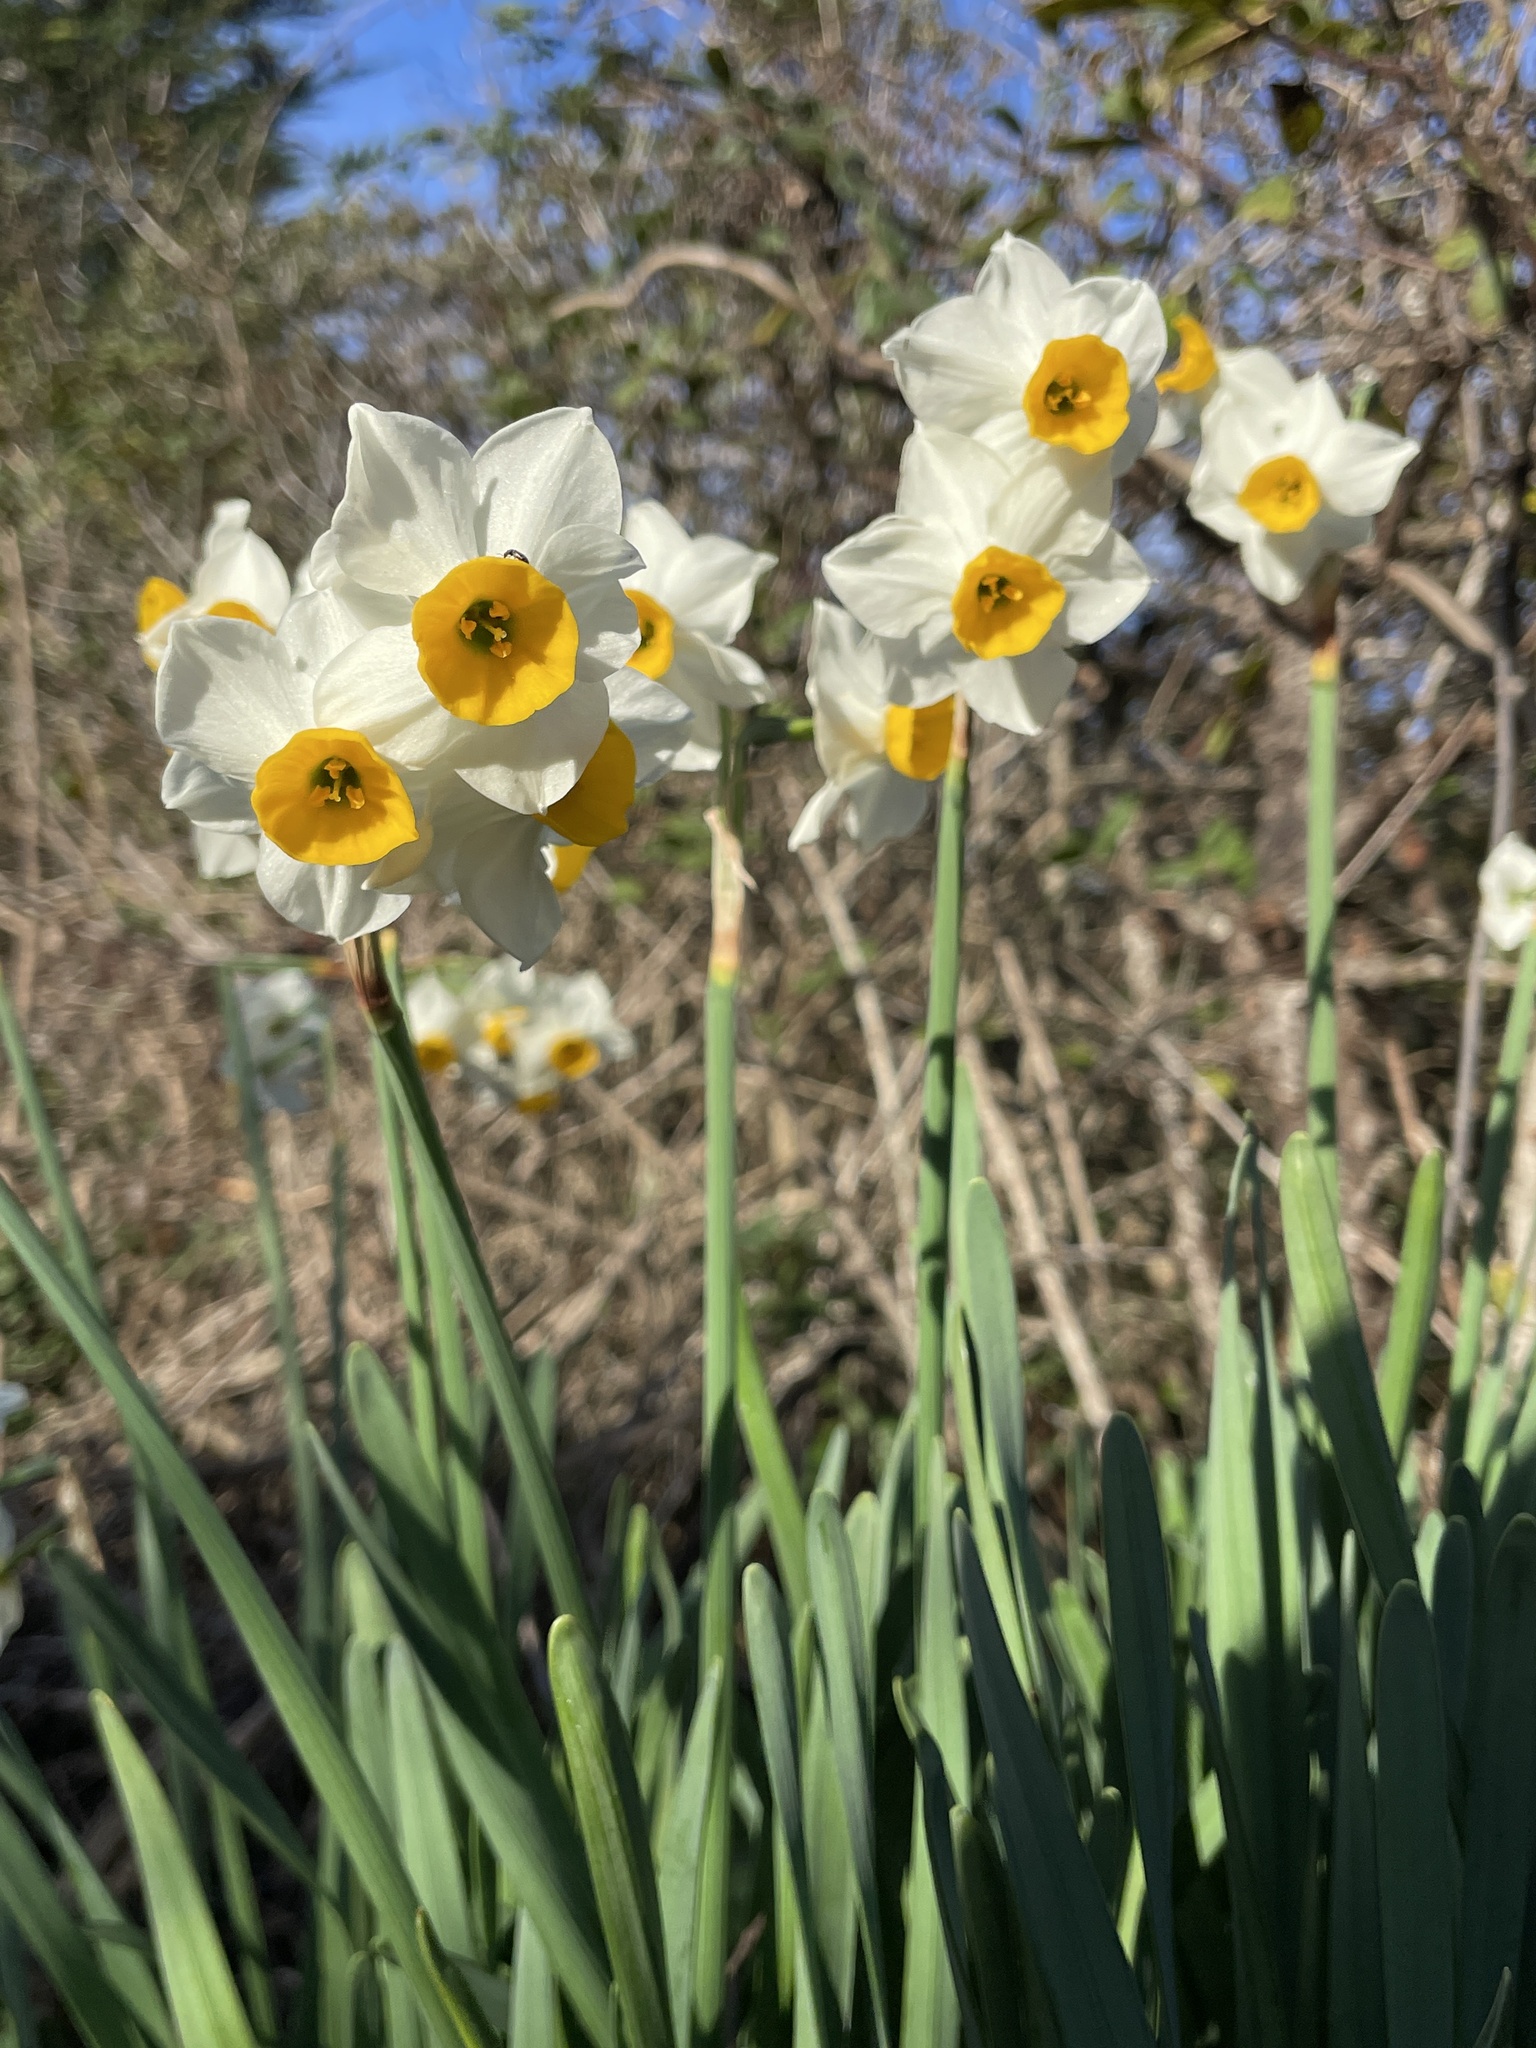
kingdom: Plantae
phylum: Tracheophyta
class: Liliopsida
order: Asparagales
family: Amaryllidaceae
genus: Narcissus
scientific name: Narcissus tazetta
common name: Bunch-flowered daffodil
